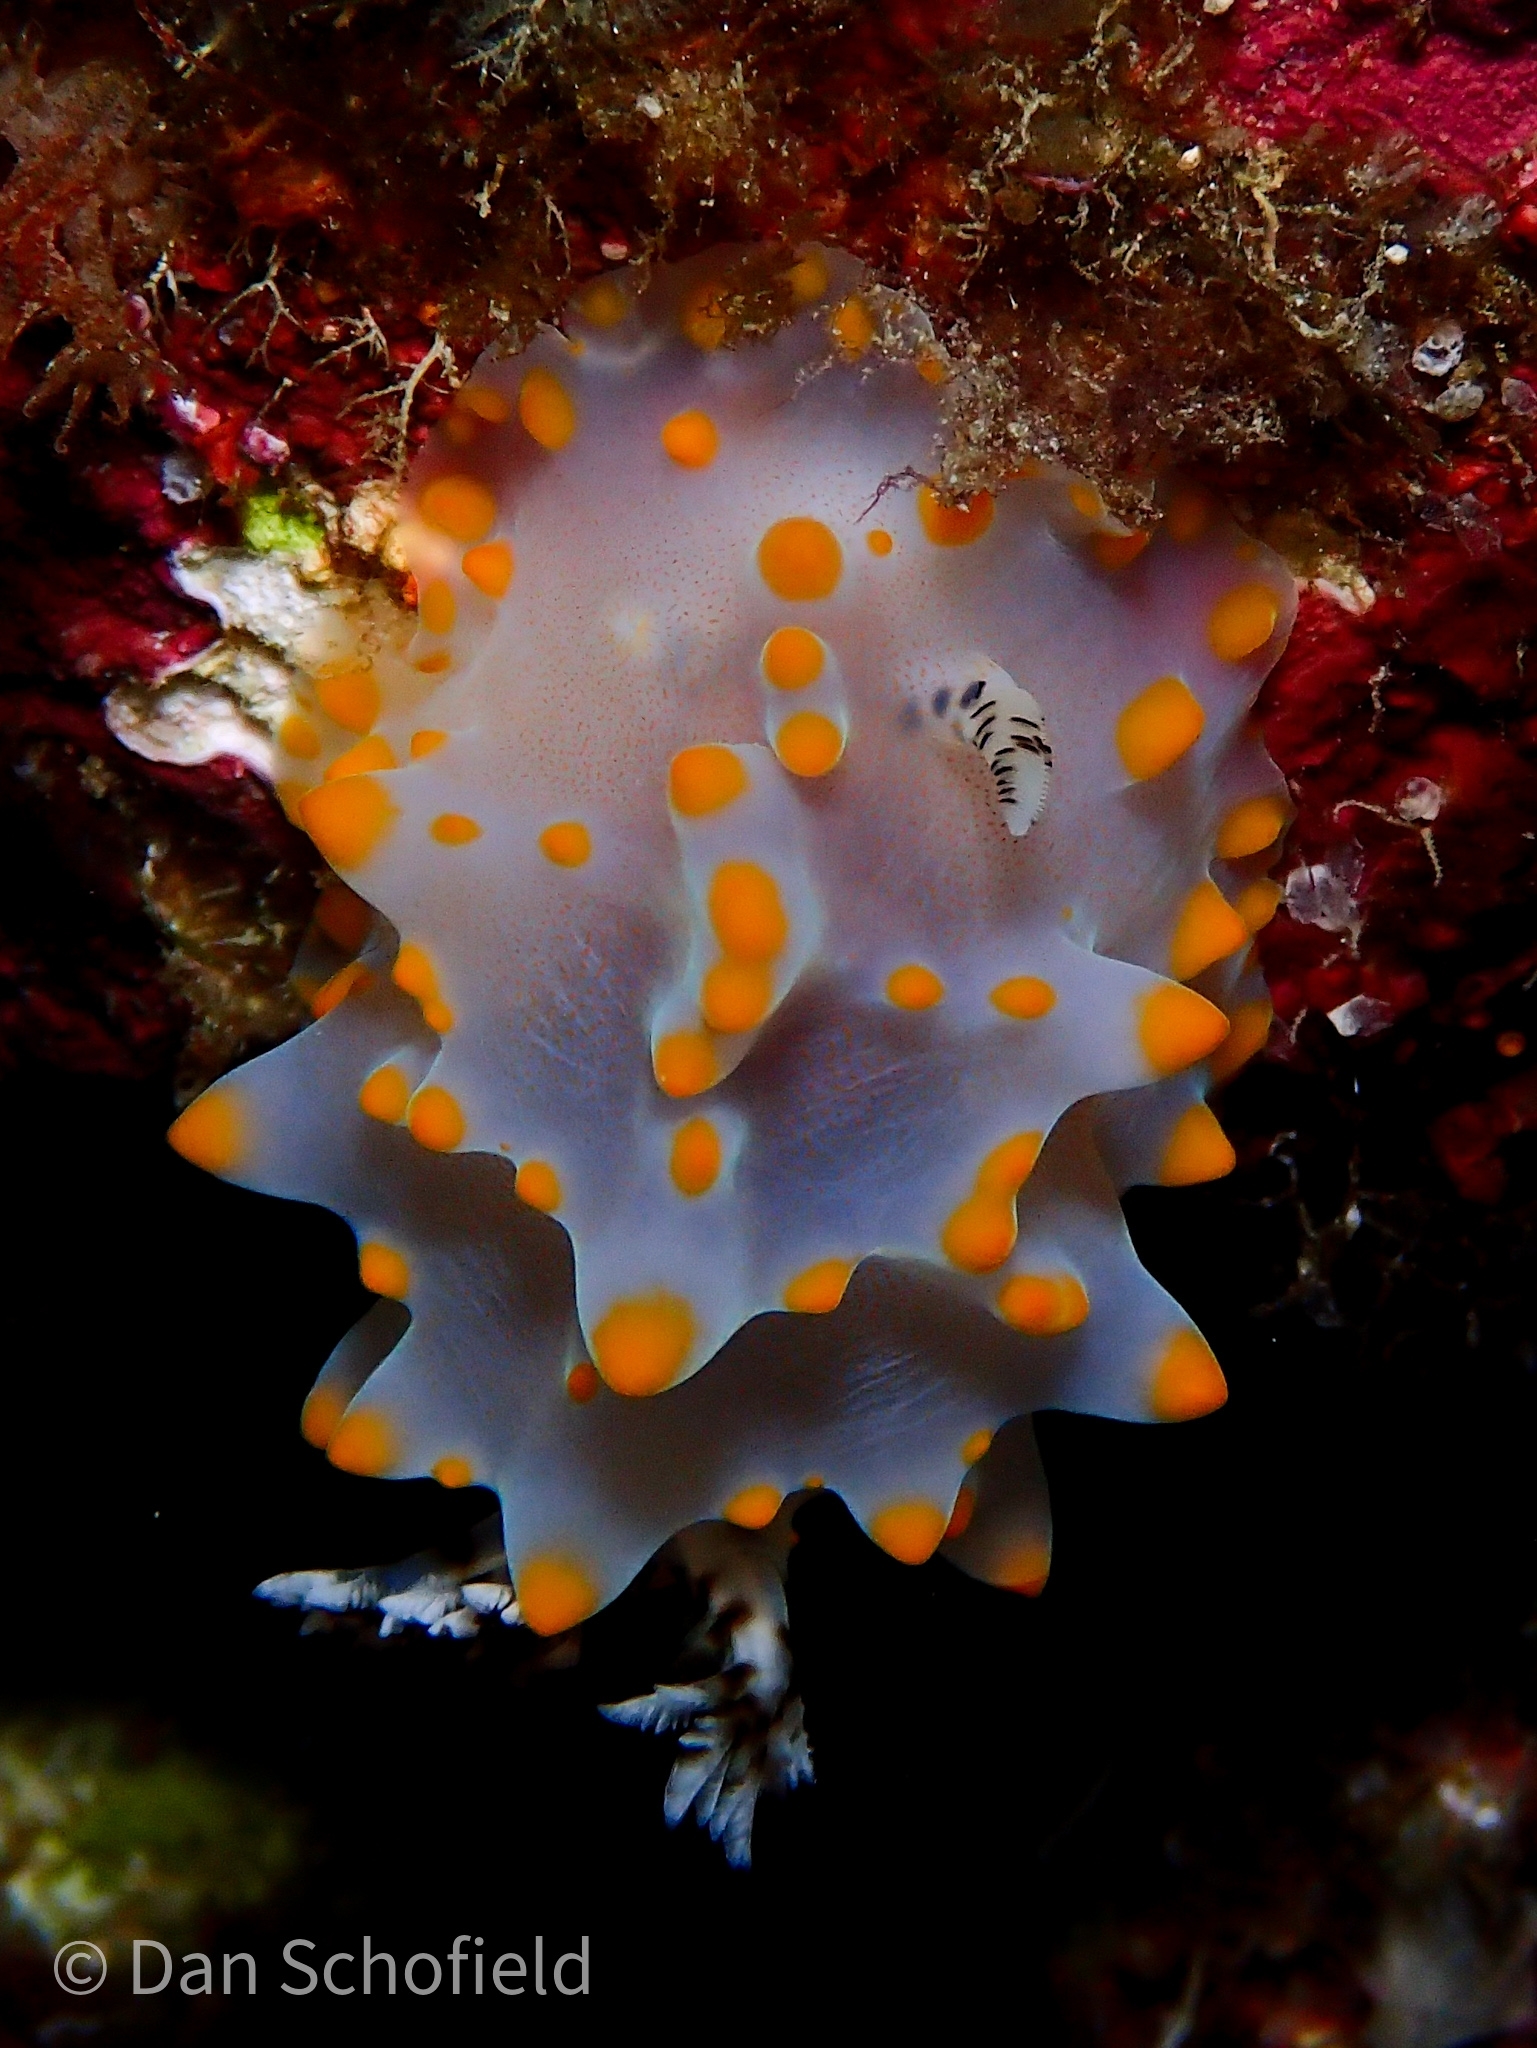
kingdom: Animalia
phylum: Mollusca
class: Gastropoda
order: Nudibranchia
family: Discodorididae
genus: Halgerda
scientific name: Halgerda carlsoni
